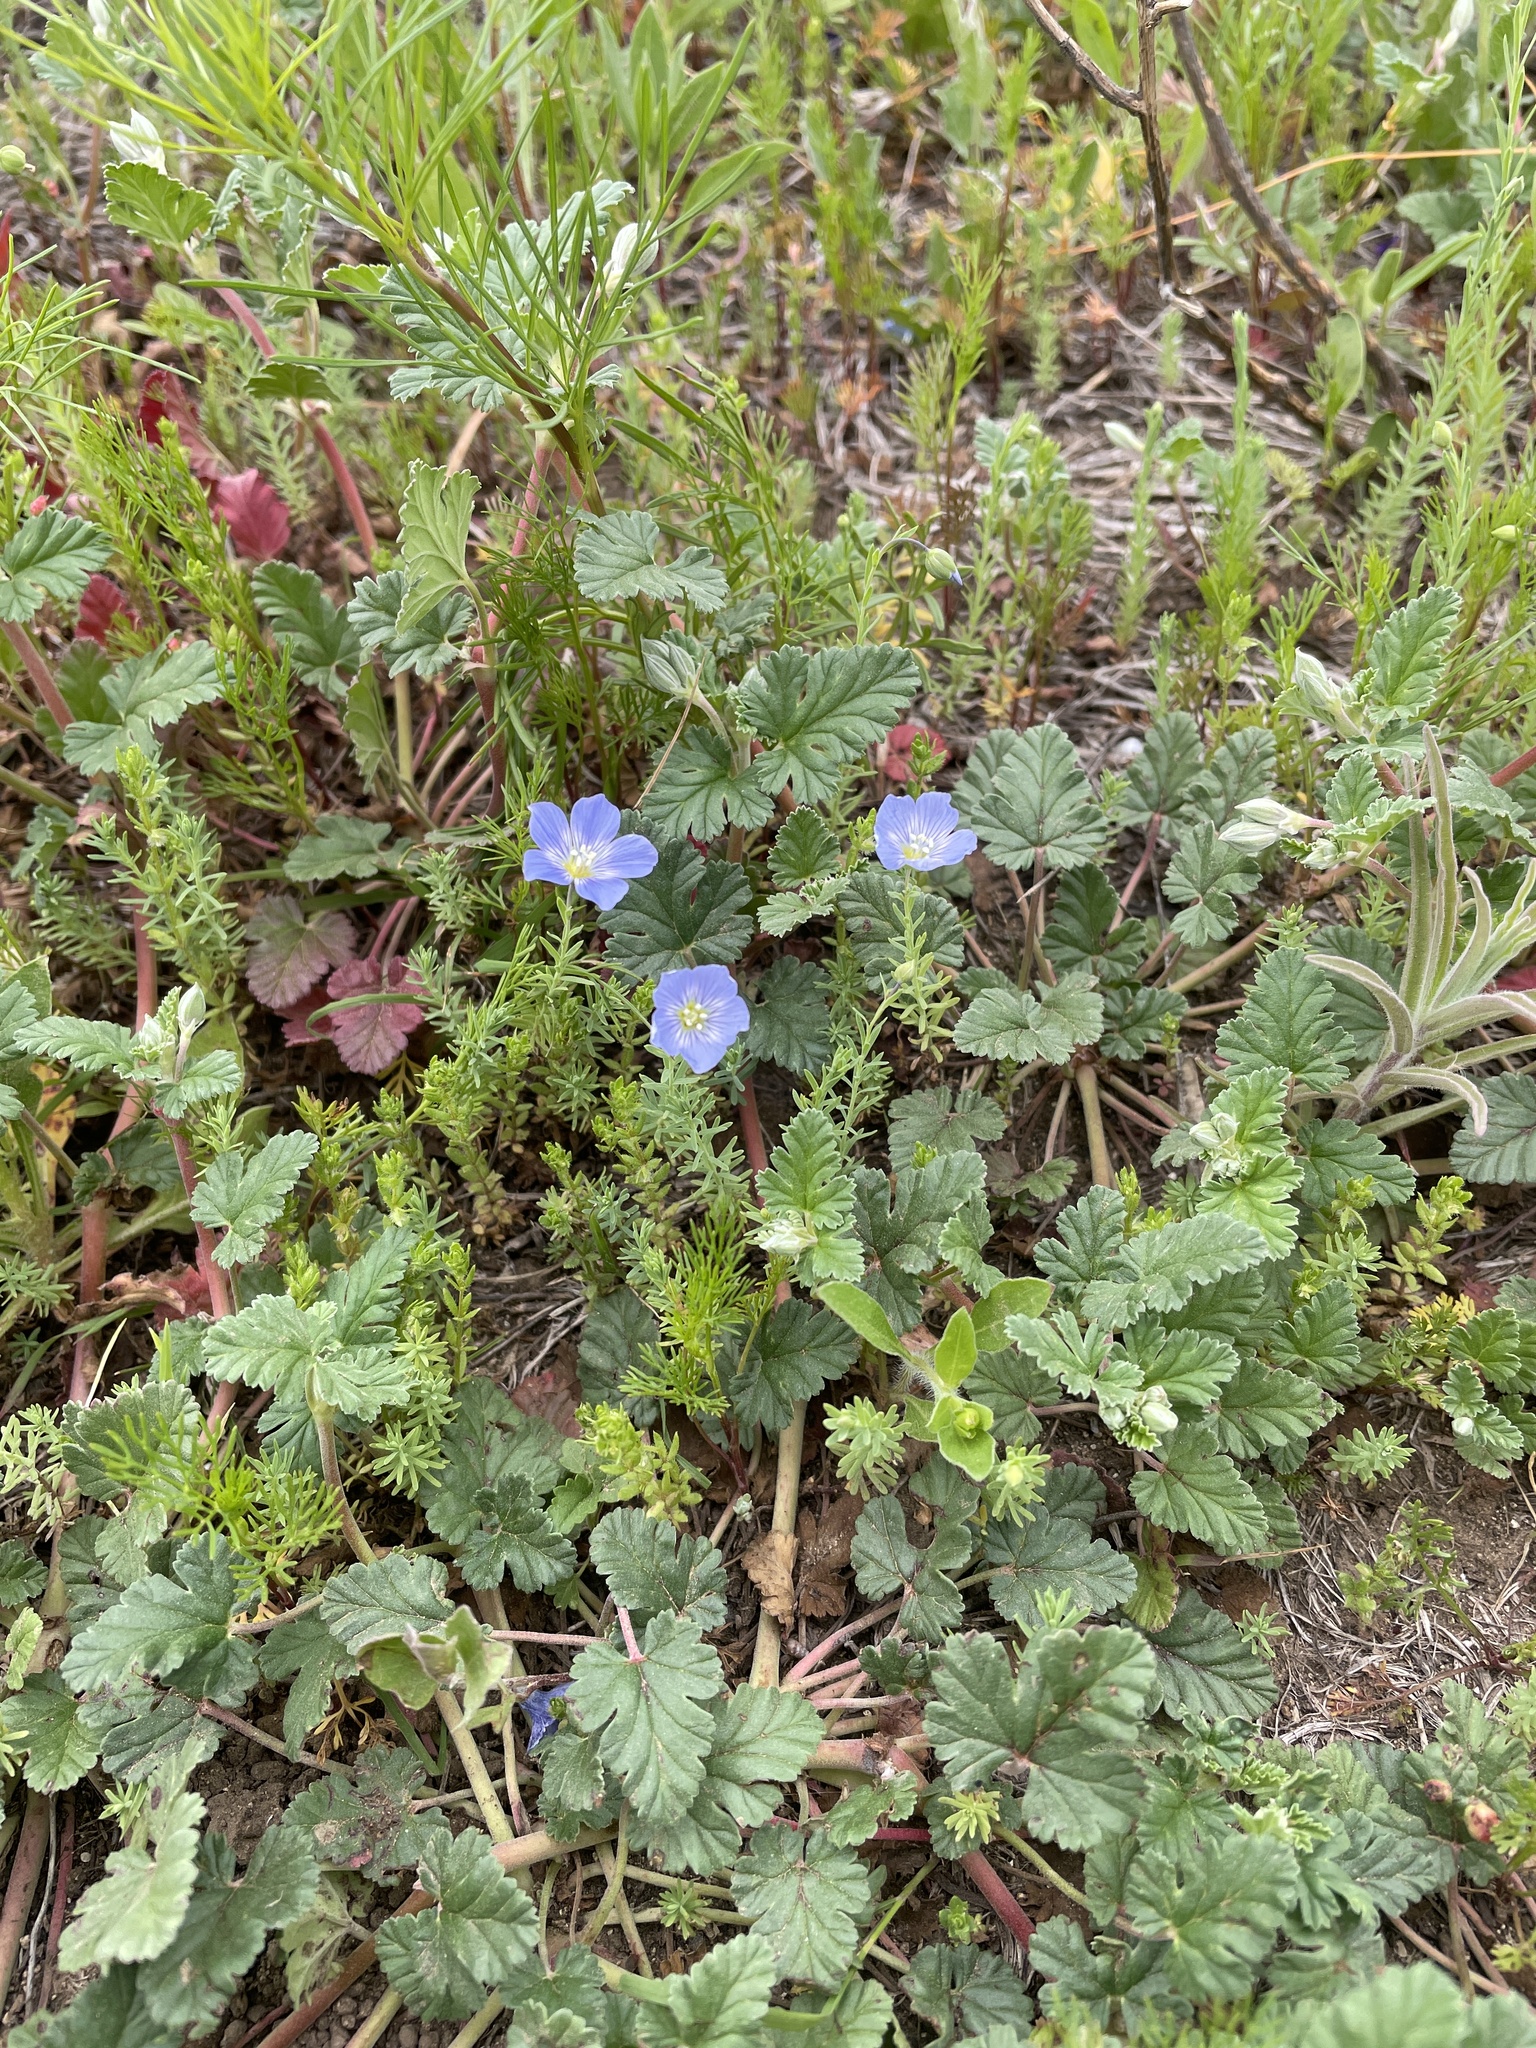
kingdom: Plantae
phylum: Tracheophyta
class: Magnoliopsida
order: Malpighiales
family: Linaceae
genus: Linum
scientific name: Linum pratense
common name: Norton's flax
